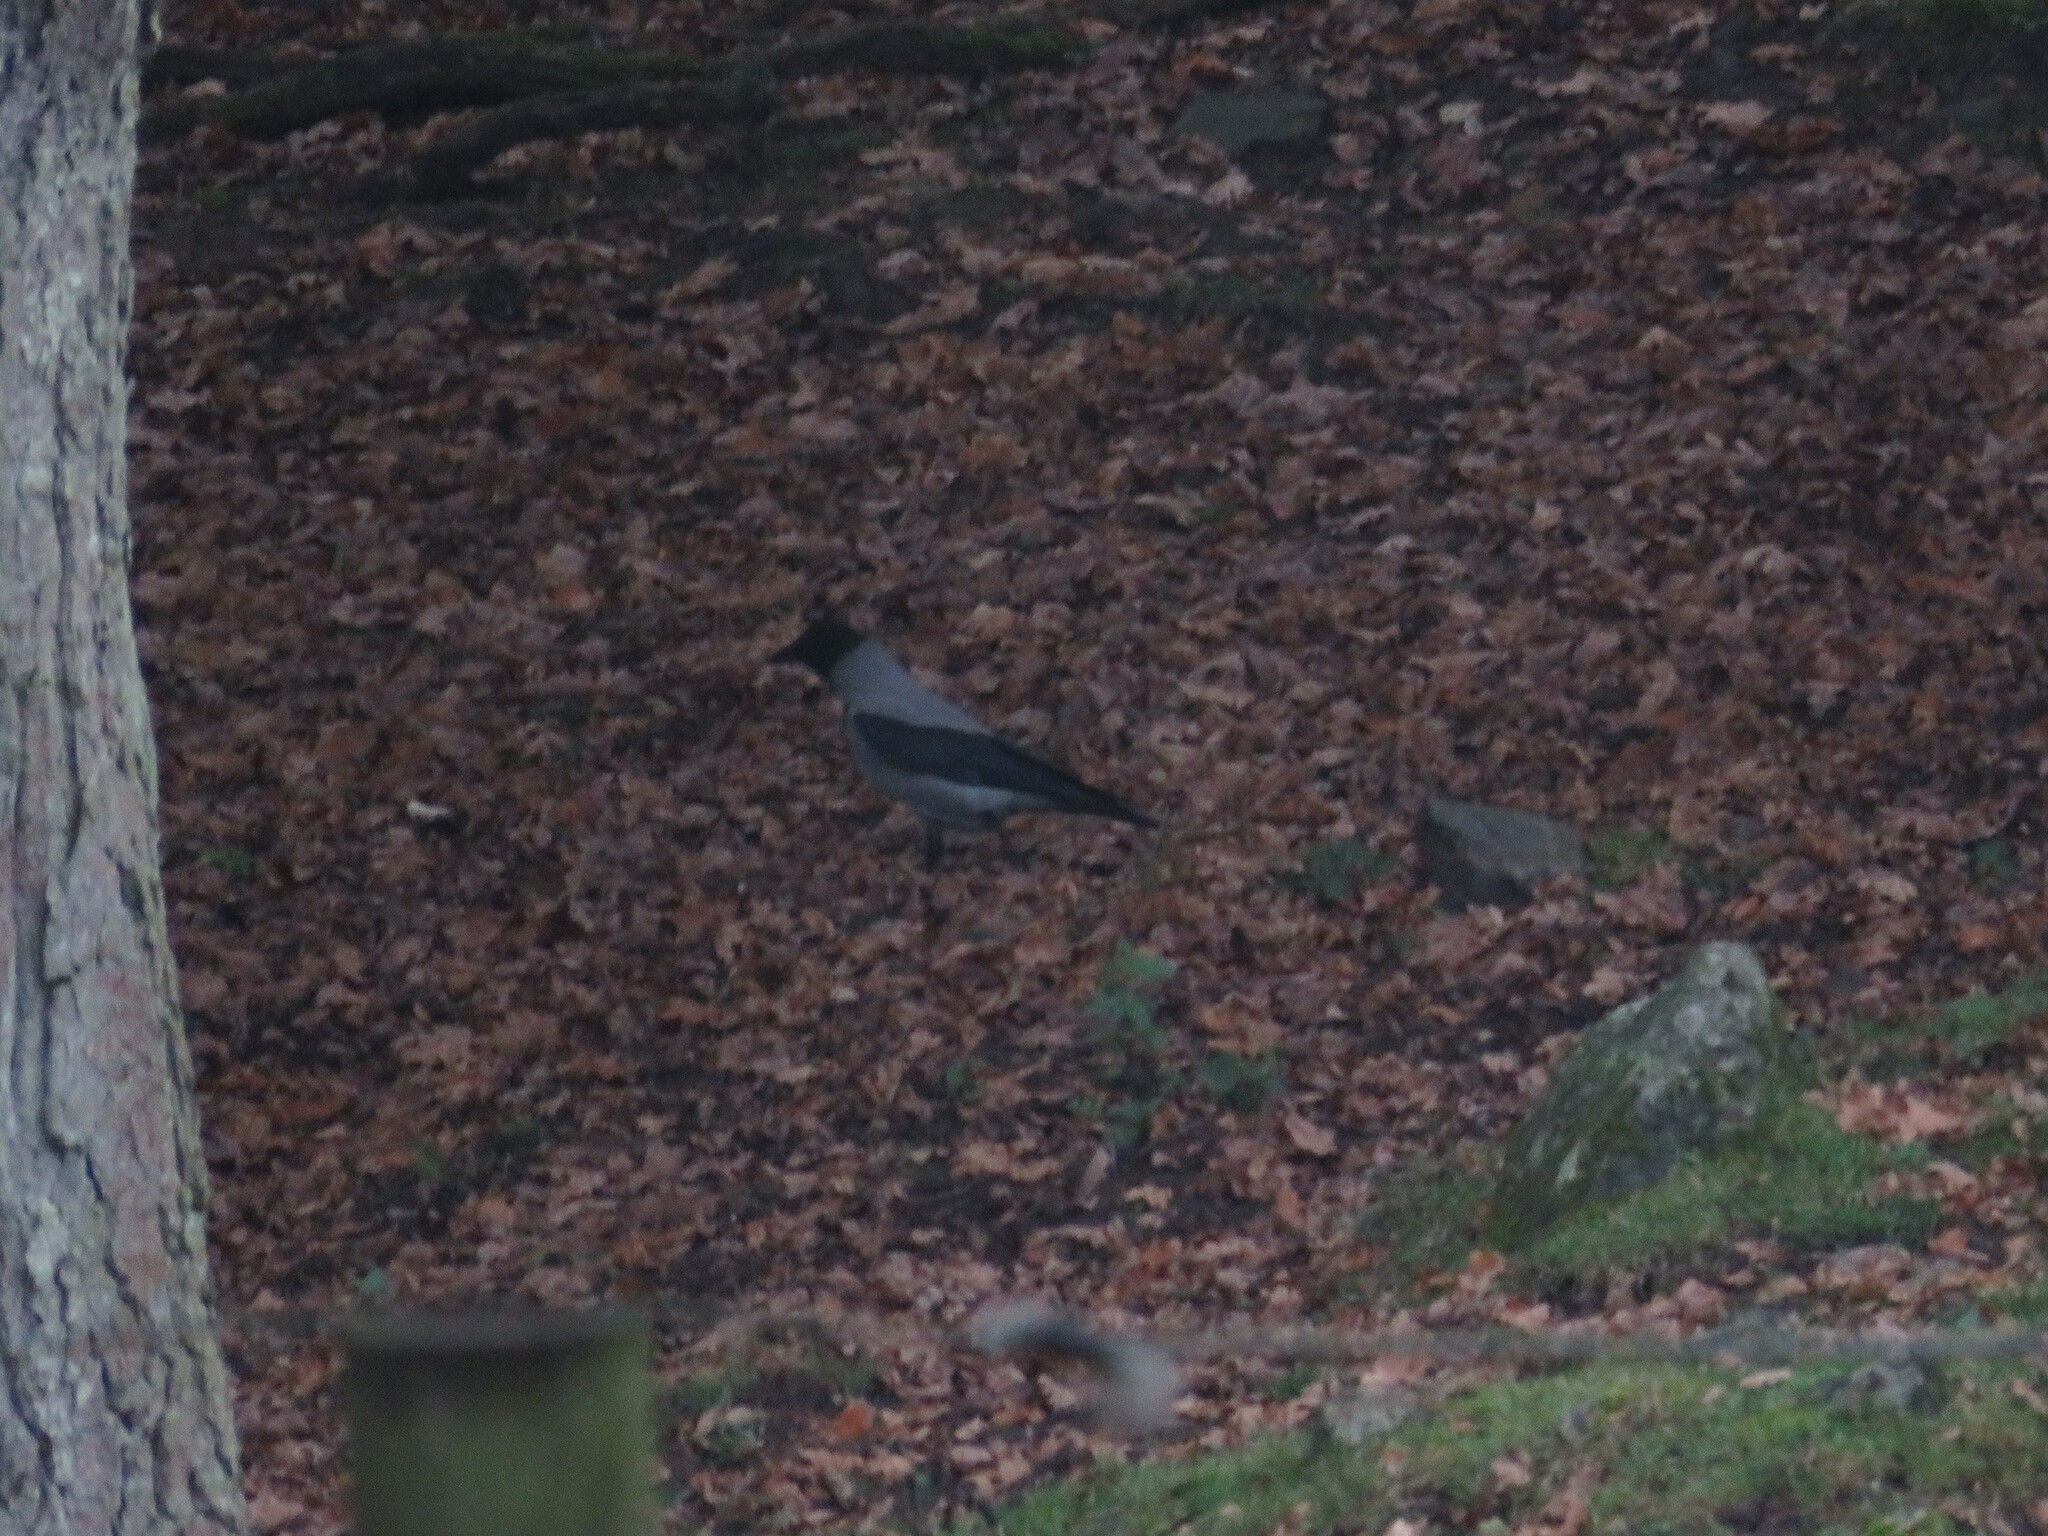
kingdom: Animalia
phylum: Chordata
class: Aves
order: Passeriformes
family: Corvidae
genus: Corvus
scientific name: Corvus cornix
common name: Hooded crow
